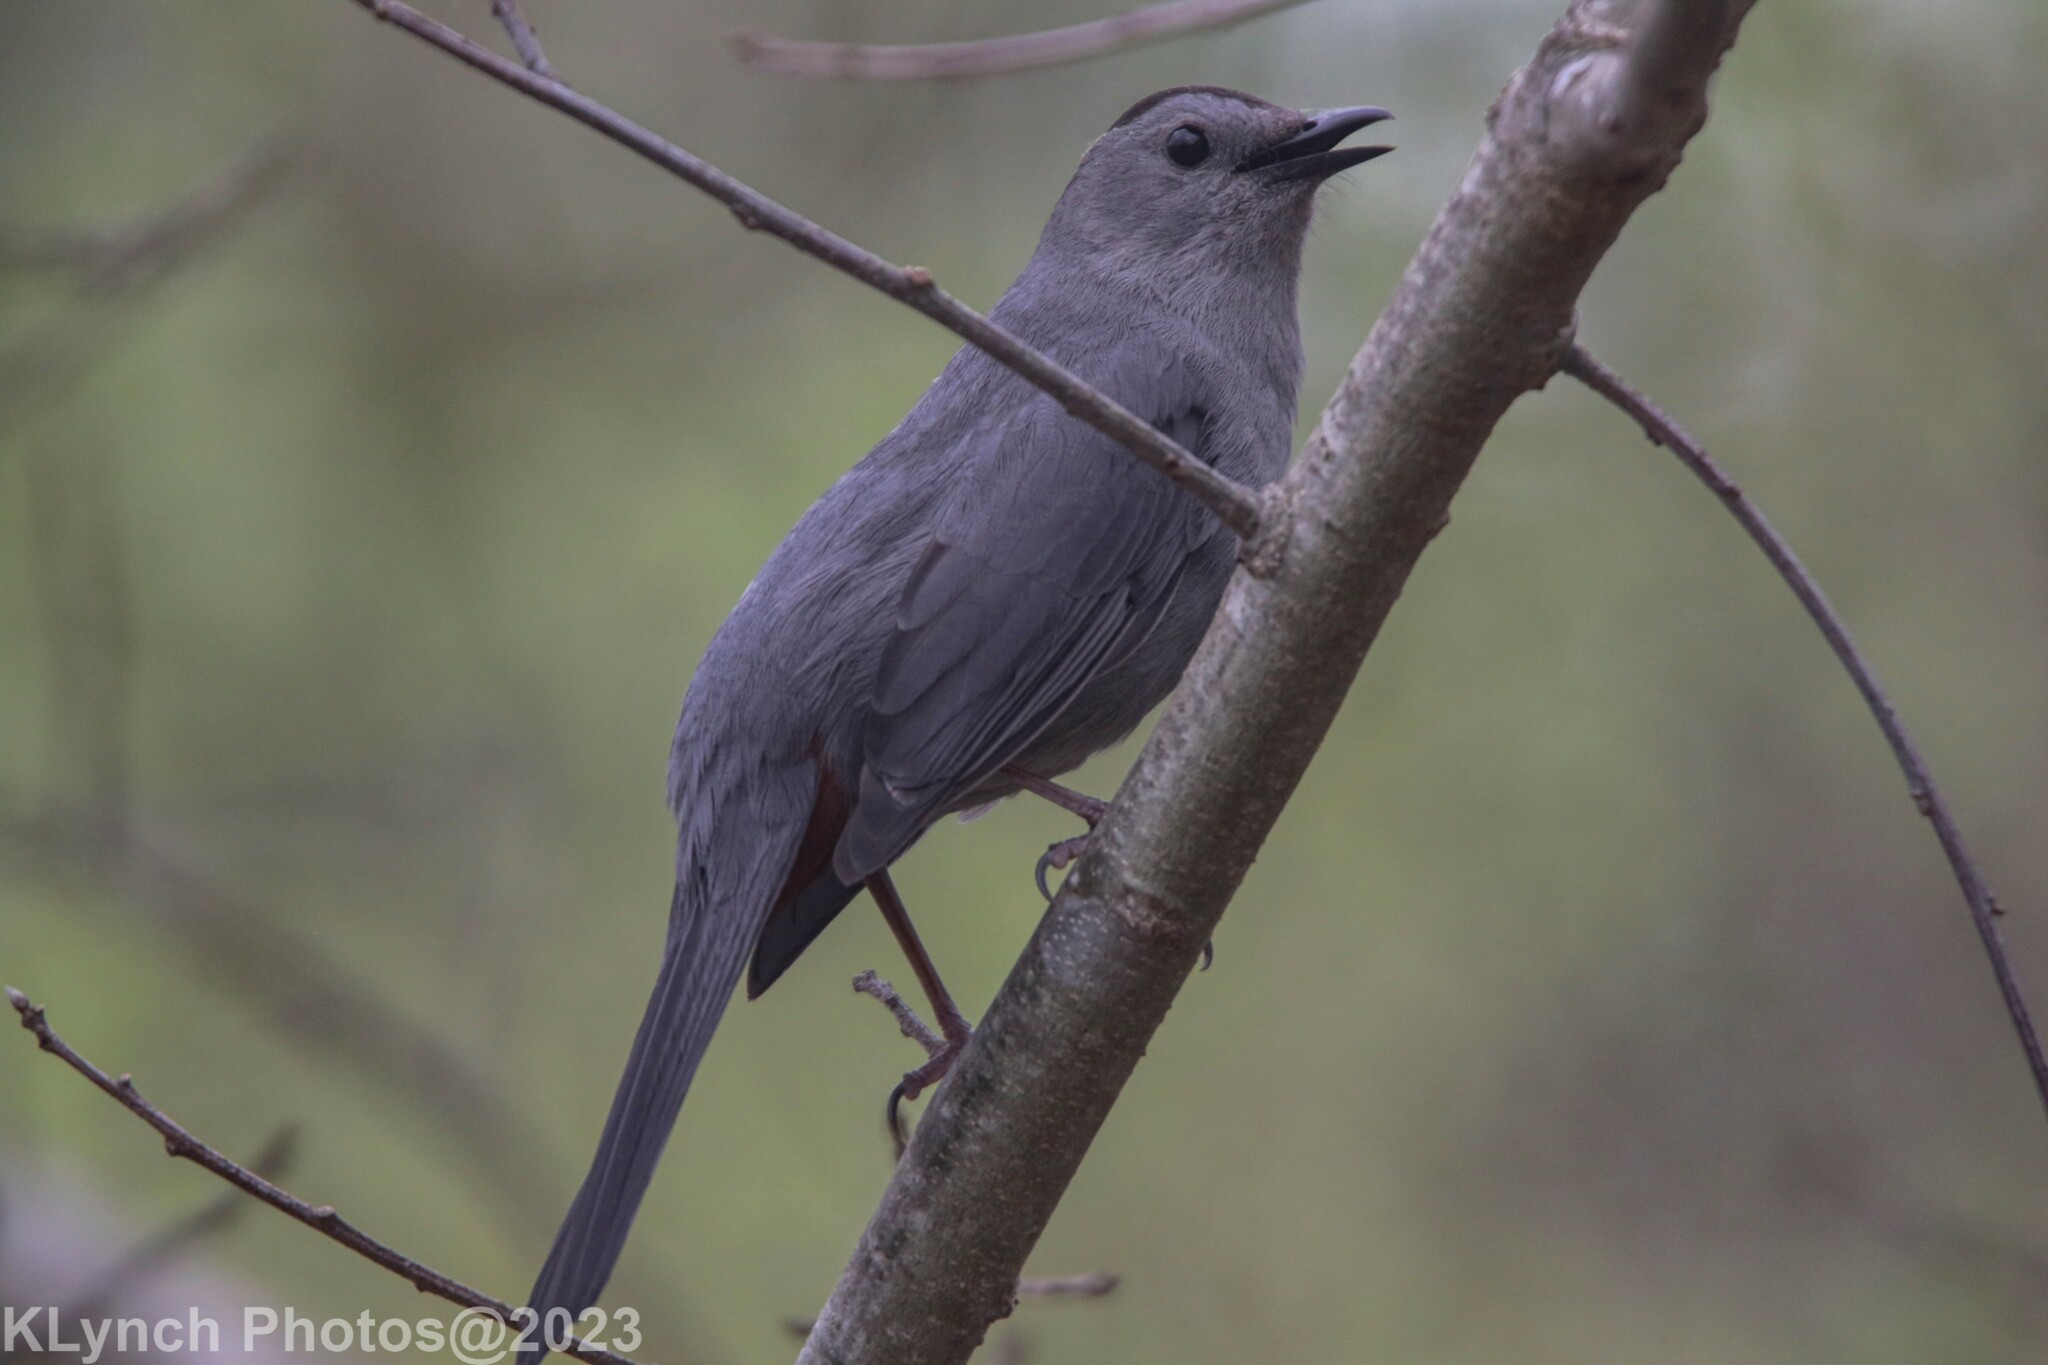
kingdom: Animalia
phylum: Chordata
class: Aves
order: Passeriformes
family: Mimidae
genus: Dumetella
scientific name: Dumetella carolinensis
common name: Gray catbird
